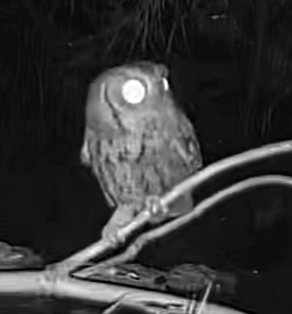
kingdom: Animalia
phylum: Chordata
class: Aves
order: Strigiformes
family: Strigidae
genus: Megascops
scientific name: Megascops asio
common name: Eastern screech-owl
